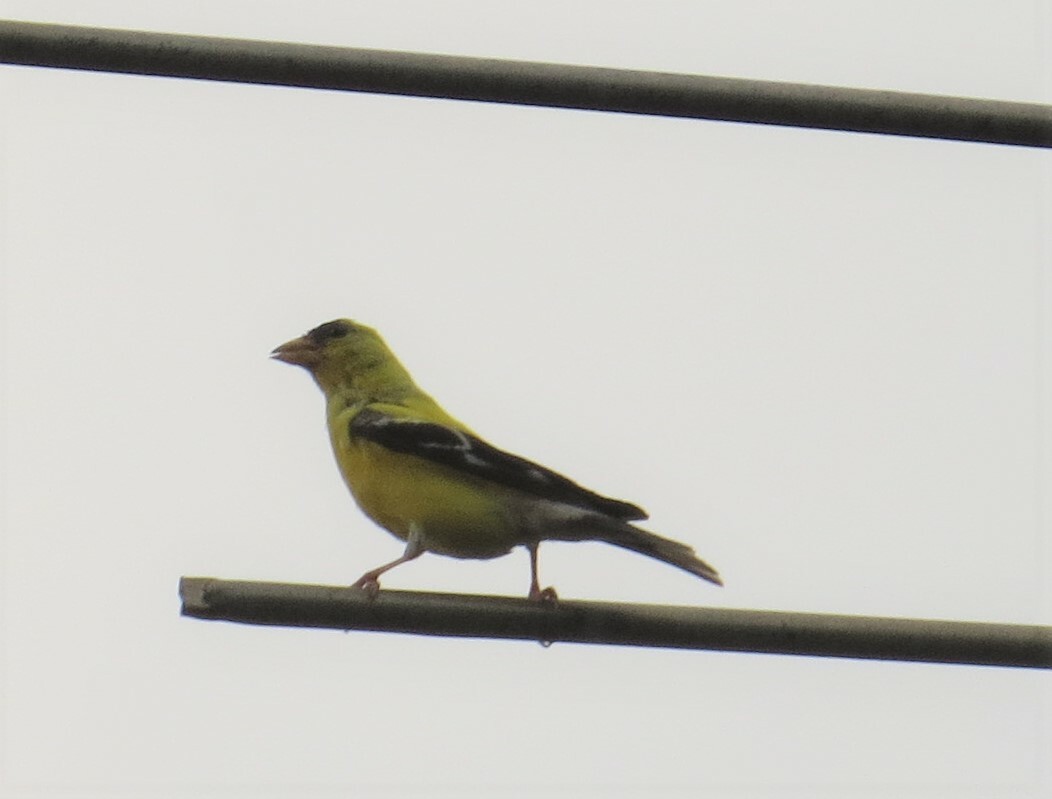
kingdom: Animalia
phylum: Chordata
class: Aves
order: Passeriformes
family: Fringillidae
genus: Spinus
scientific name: Spinus tristis
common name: American goldfinch
